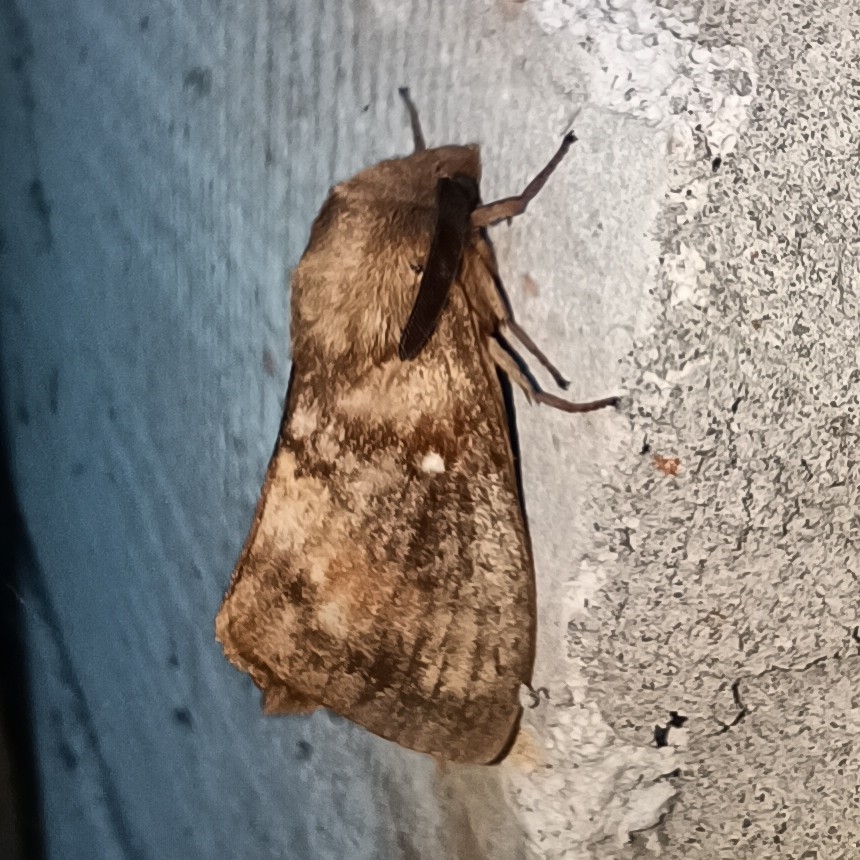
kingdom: Animalia
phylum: Arthropoda
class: Insecta
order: Lepidoptera
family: Lasiocampidae
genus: Dendrolimus
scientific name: Dendrolimus pini
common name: Pine-tree lappet
